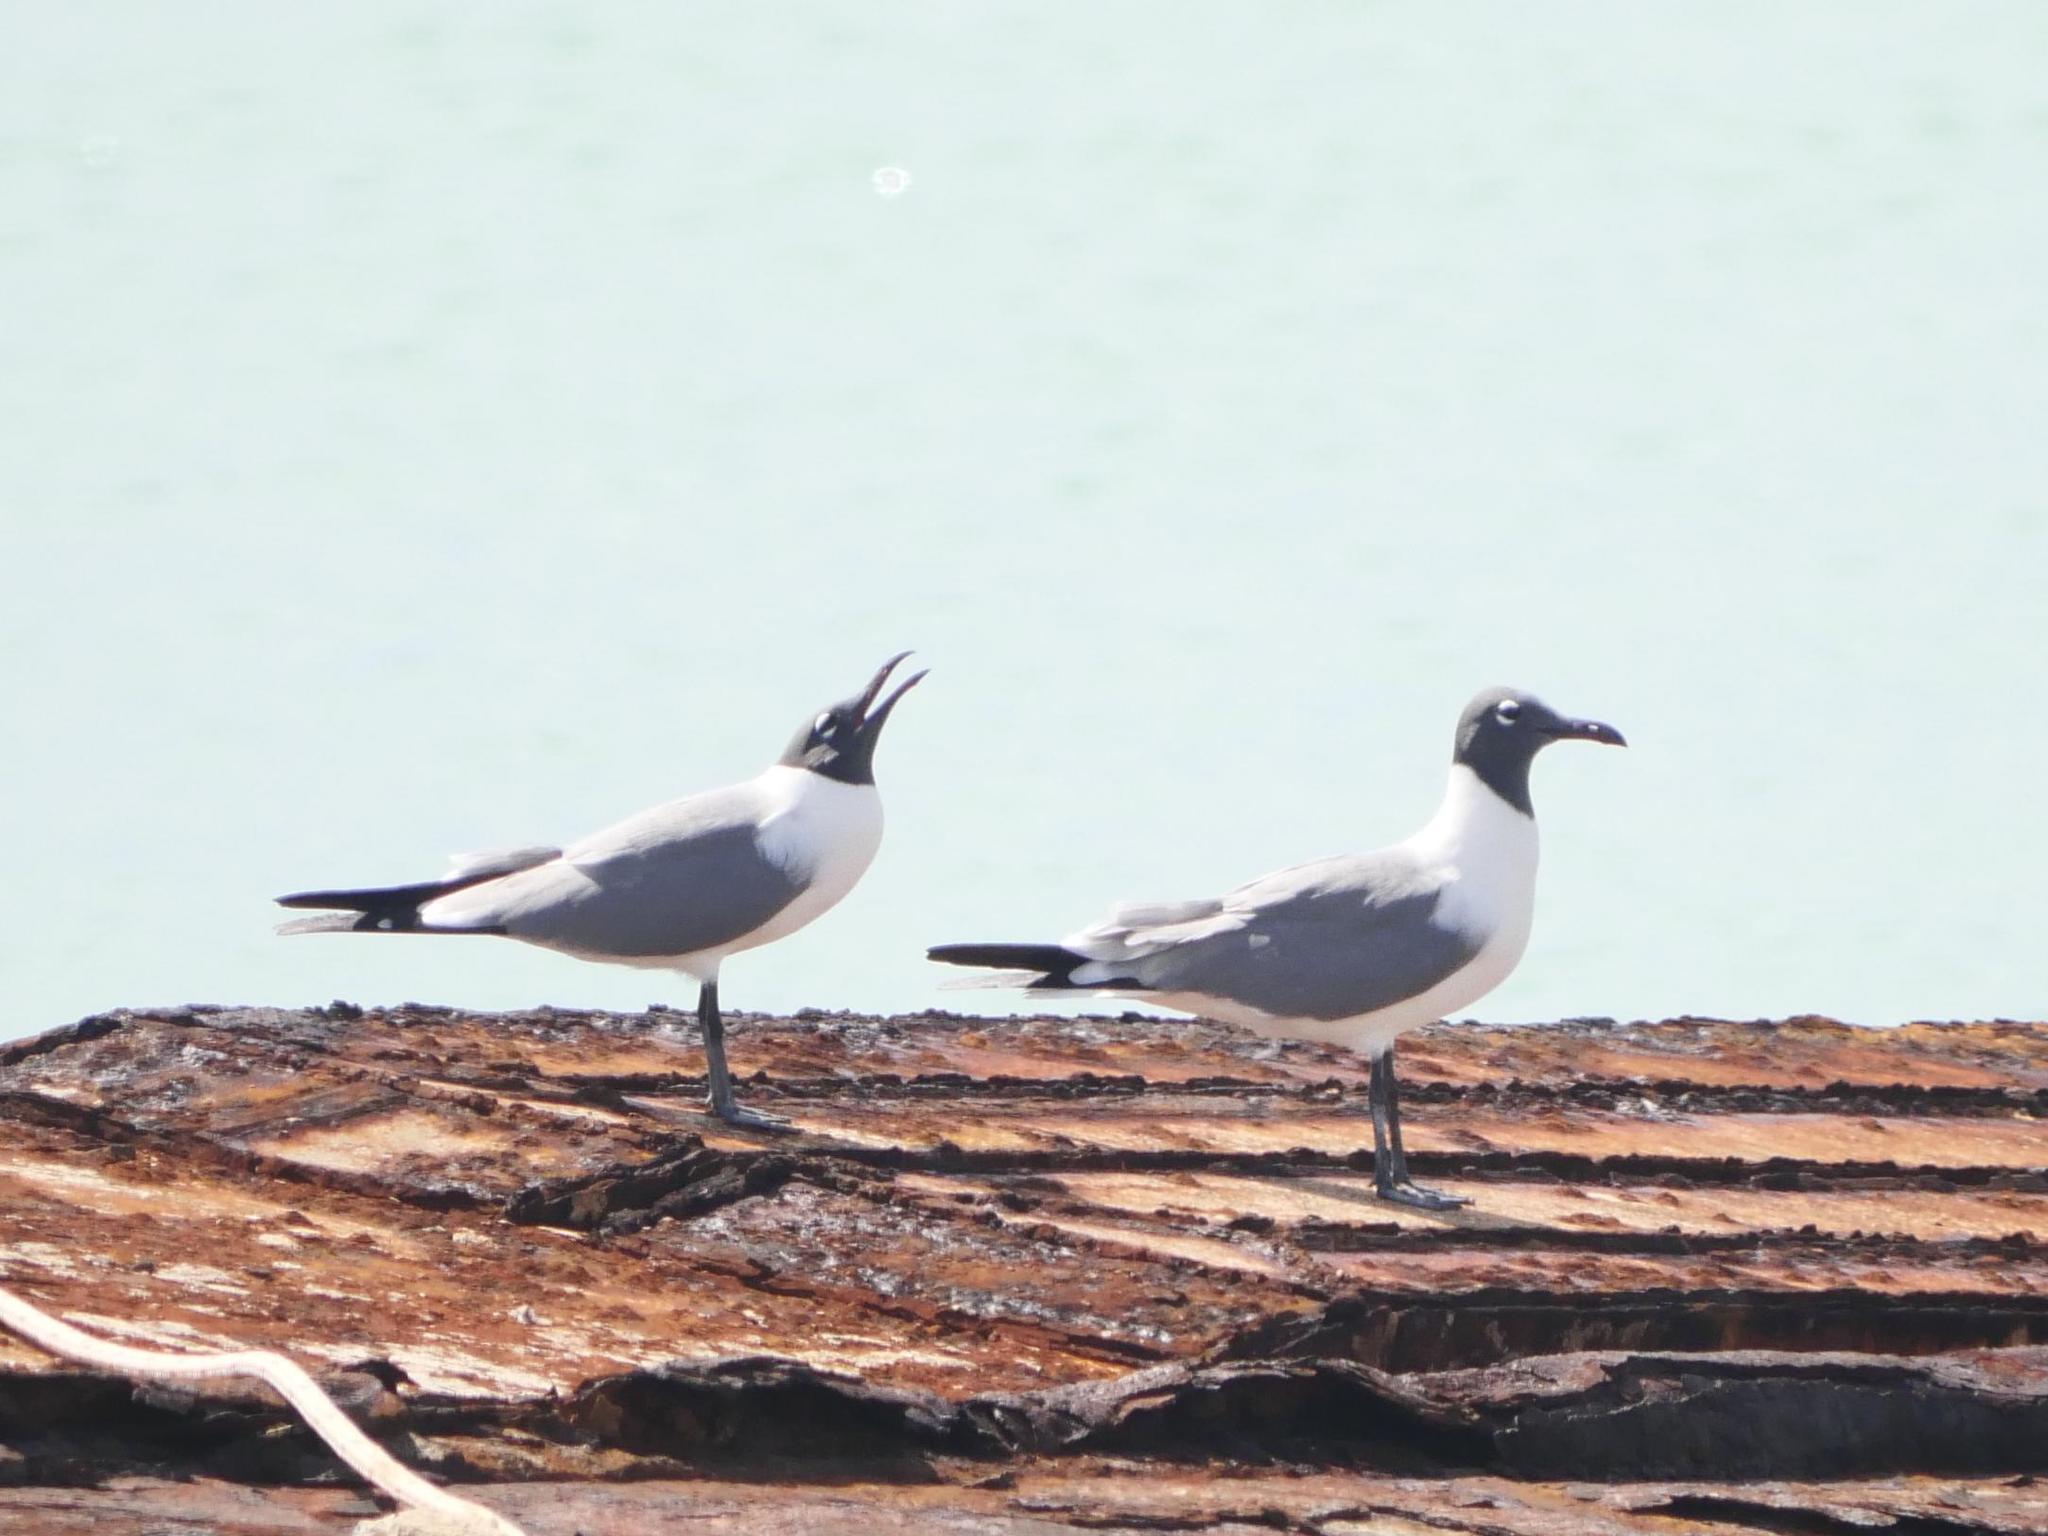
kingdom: Animalia
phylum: Chordata
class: Aves
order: Charadriiformes
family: Laridae
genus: Leucophaeus
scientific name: Leucophaeus atricilla
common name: Laughing gull
